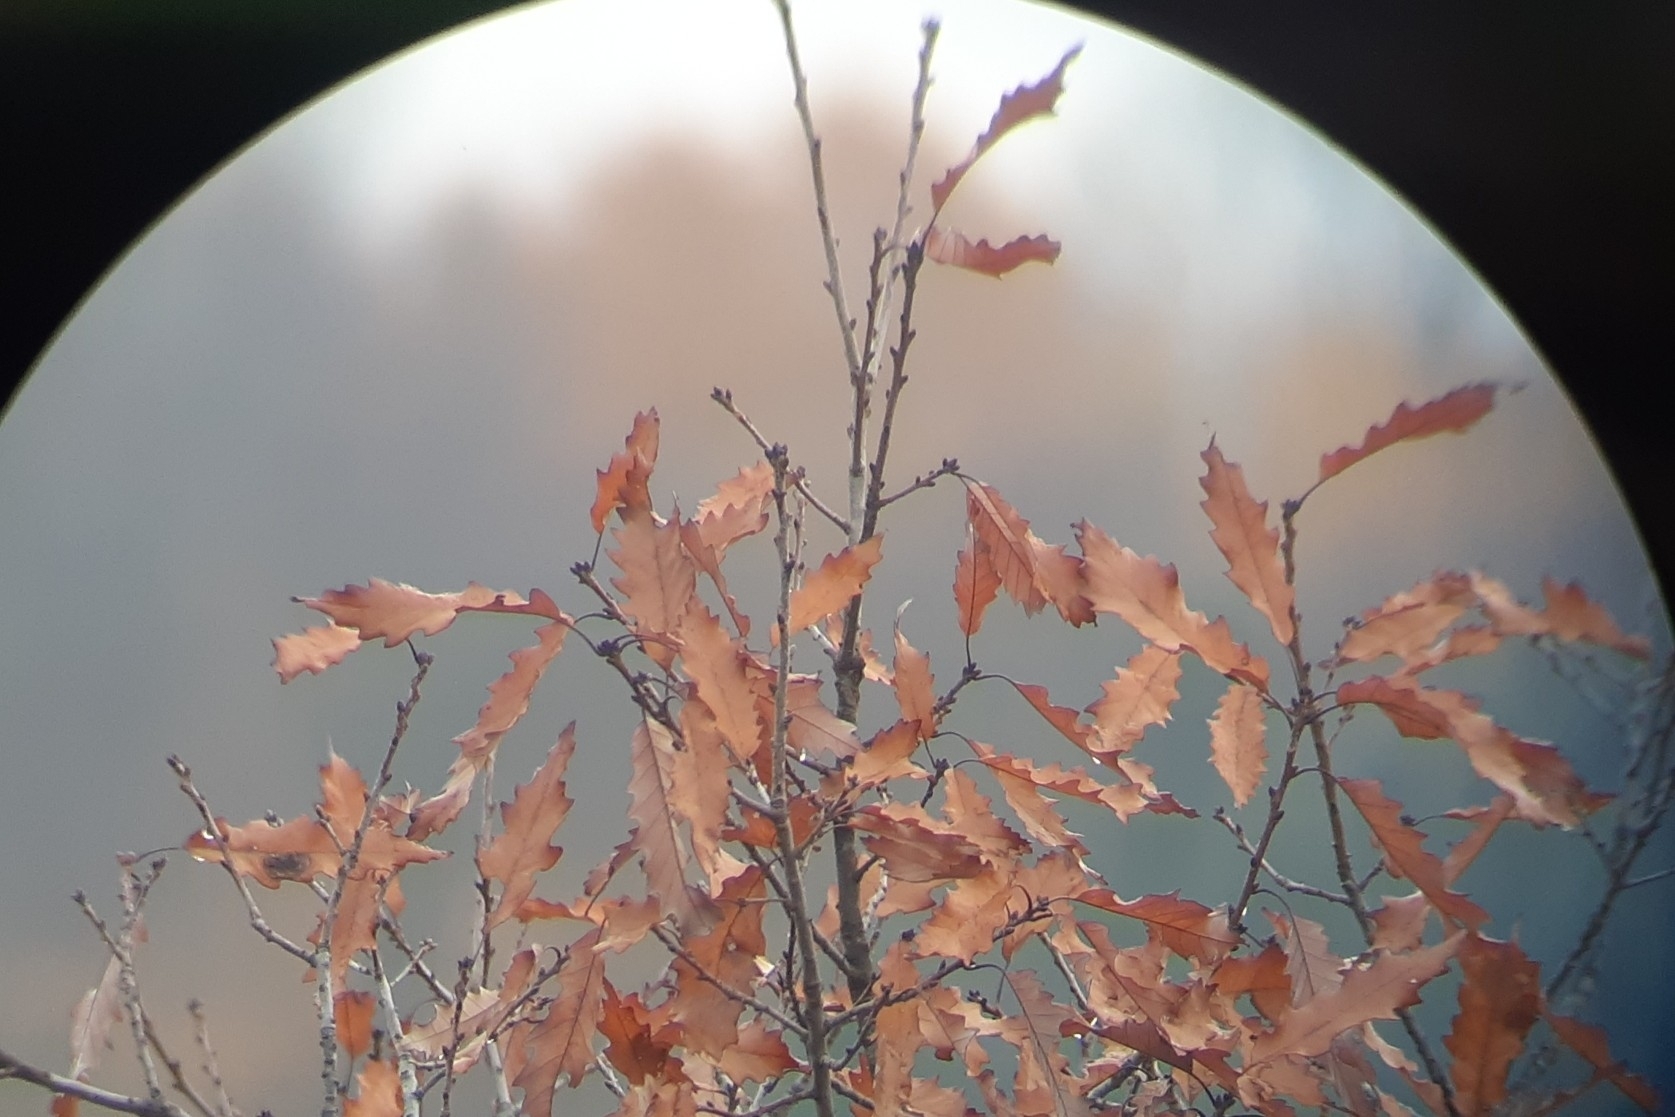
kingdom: Plantae
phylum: Tracheophyta
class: Magnoliopsida
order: Fagales
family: Fagaceae
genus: Quercus
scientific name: Quercus muehlenbergii
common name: Chinkapin oak
